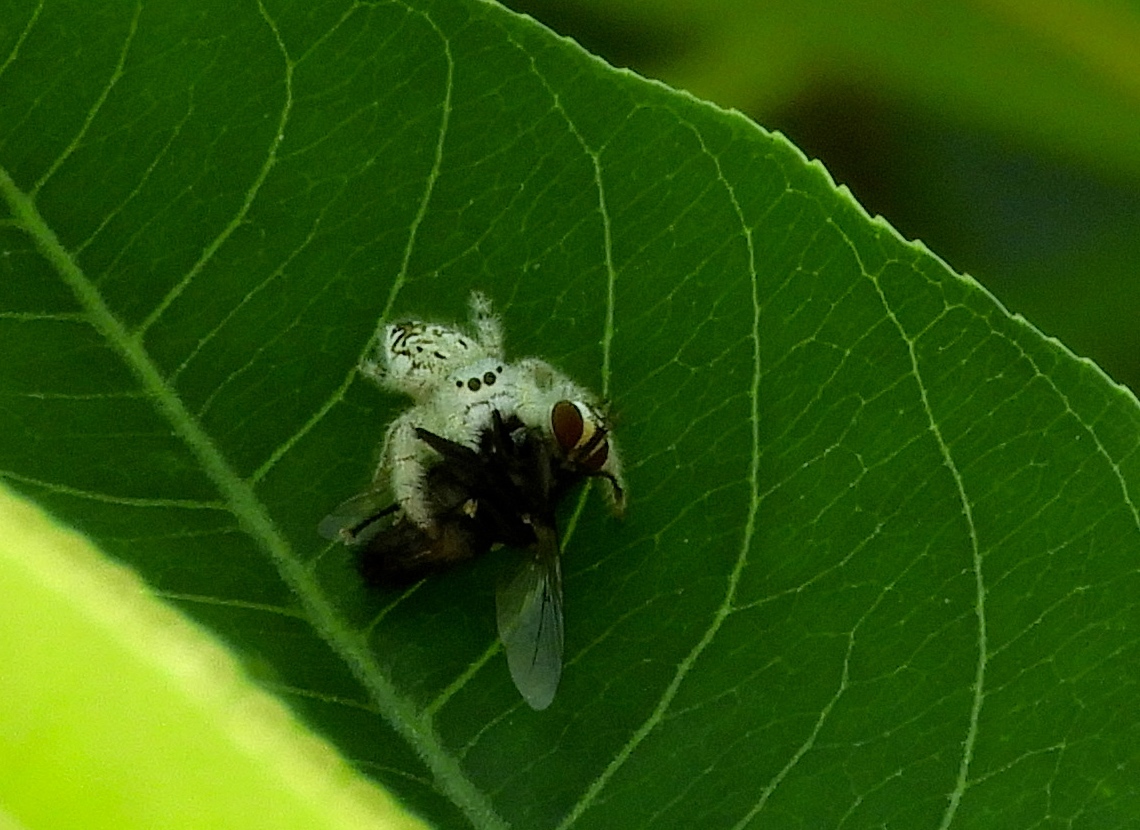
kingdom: Animalia
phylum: Arthropoda
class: Arachnida
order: Araneae
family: Salticidae
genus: Paraphidippus
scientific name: Paraphidippus fartilis
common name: Jumping spiders
